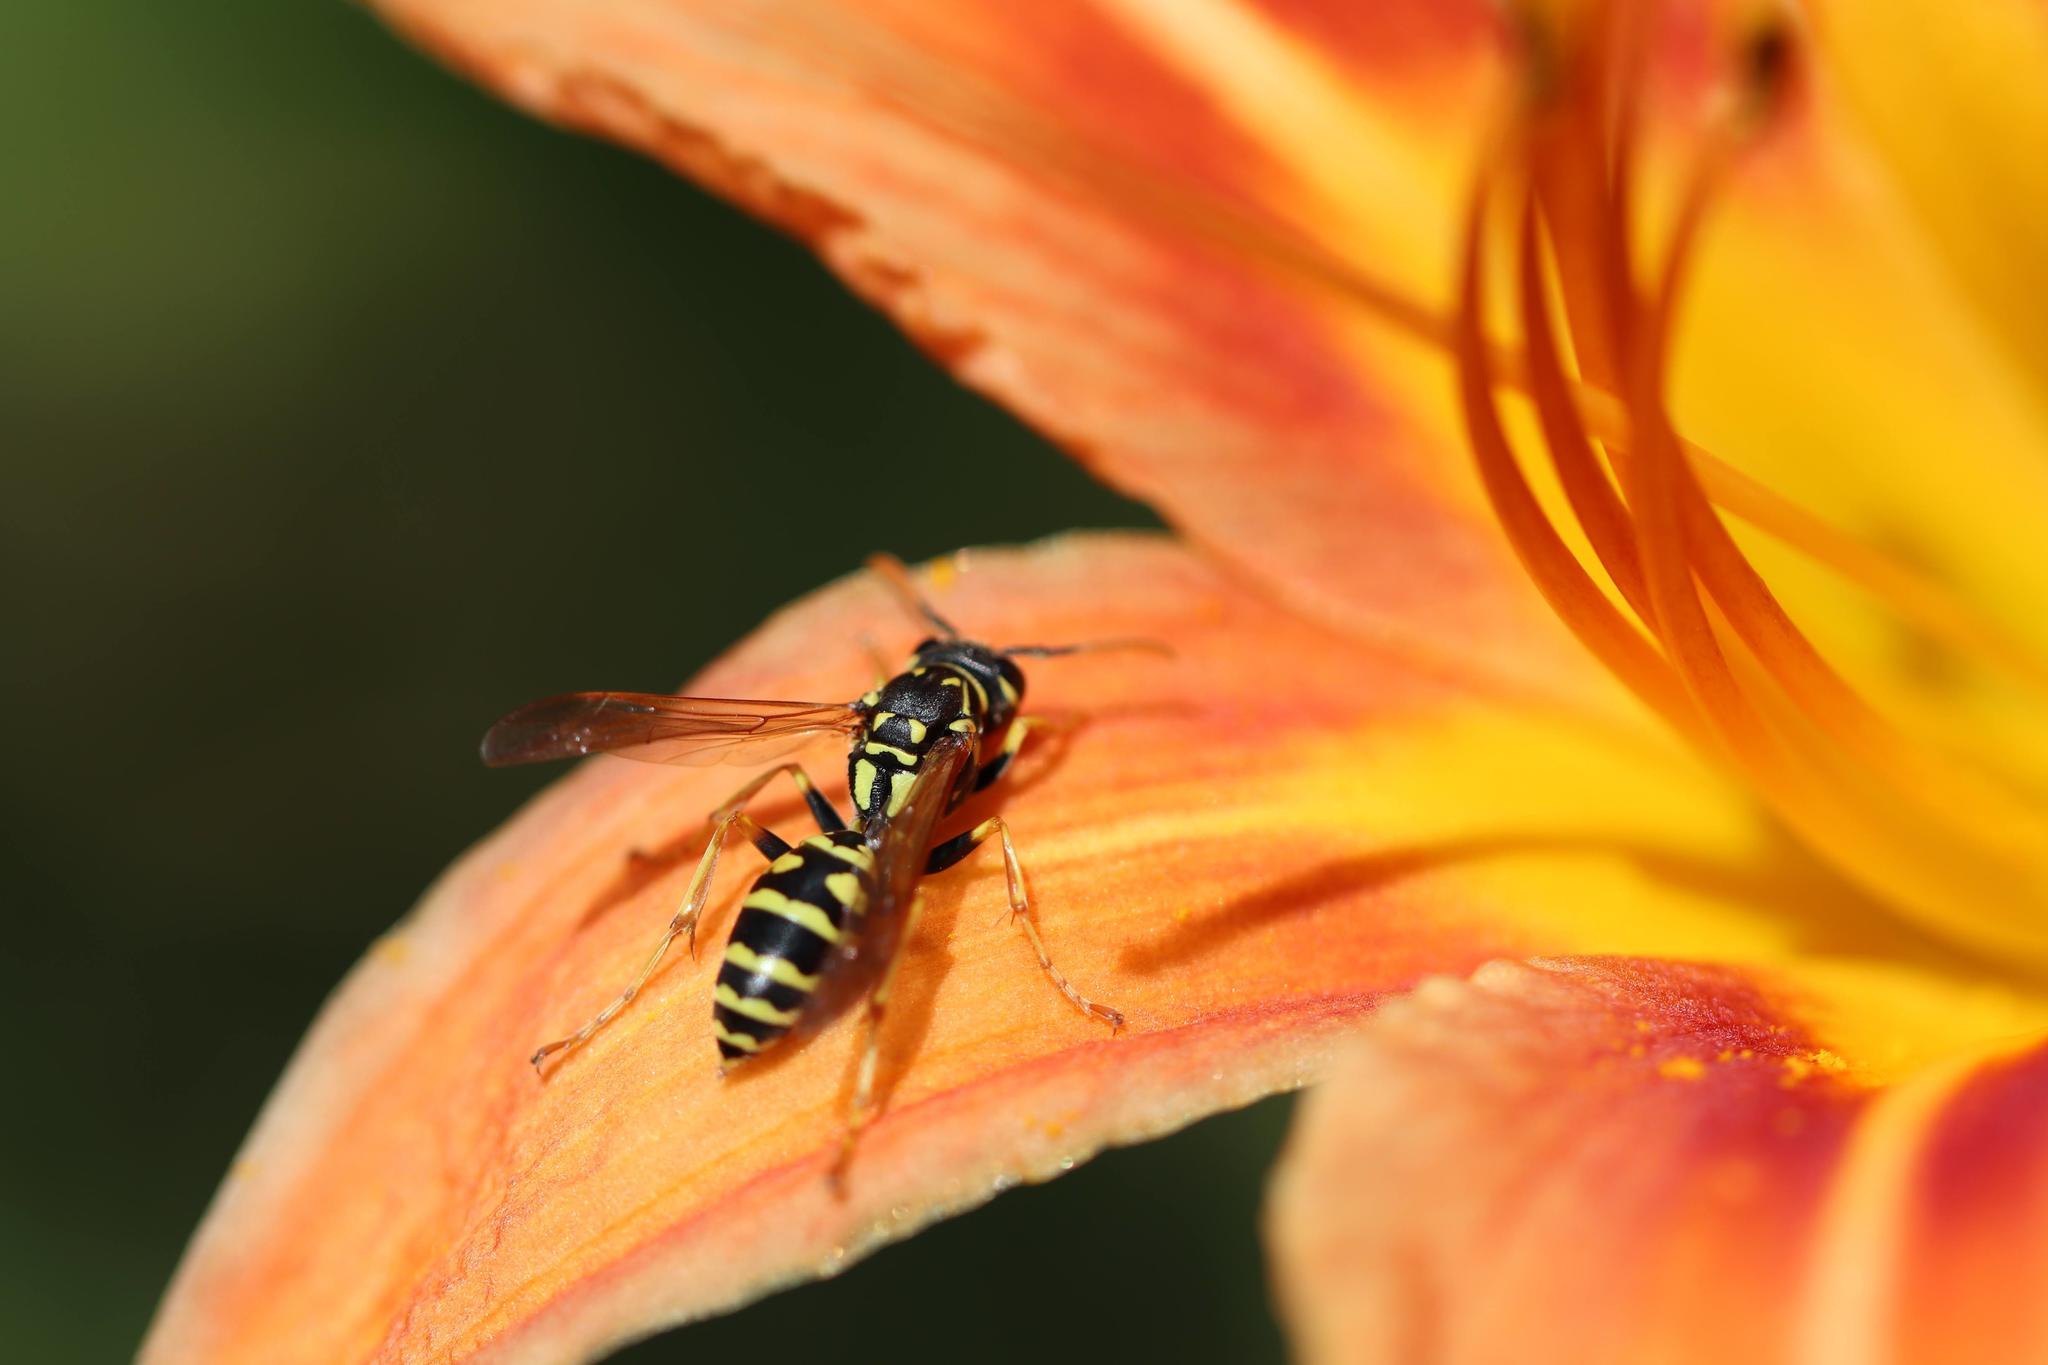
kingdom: Animalia
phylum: Arthropoda
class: Insecta
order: Hymenoptera
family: Eumenidae
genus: Polistes
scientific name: Polistes dominula
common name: Paper wasp
